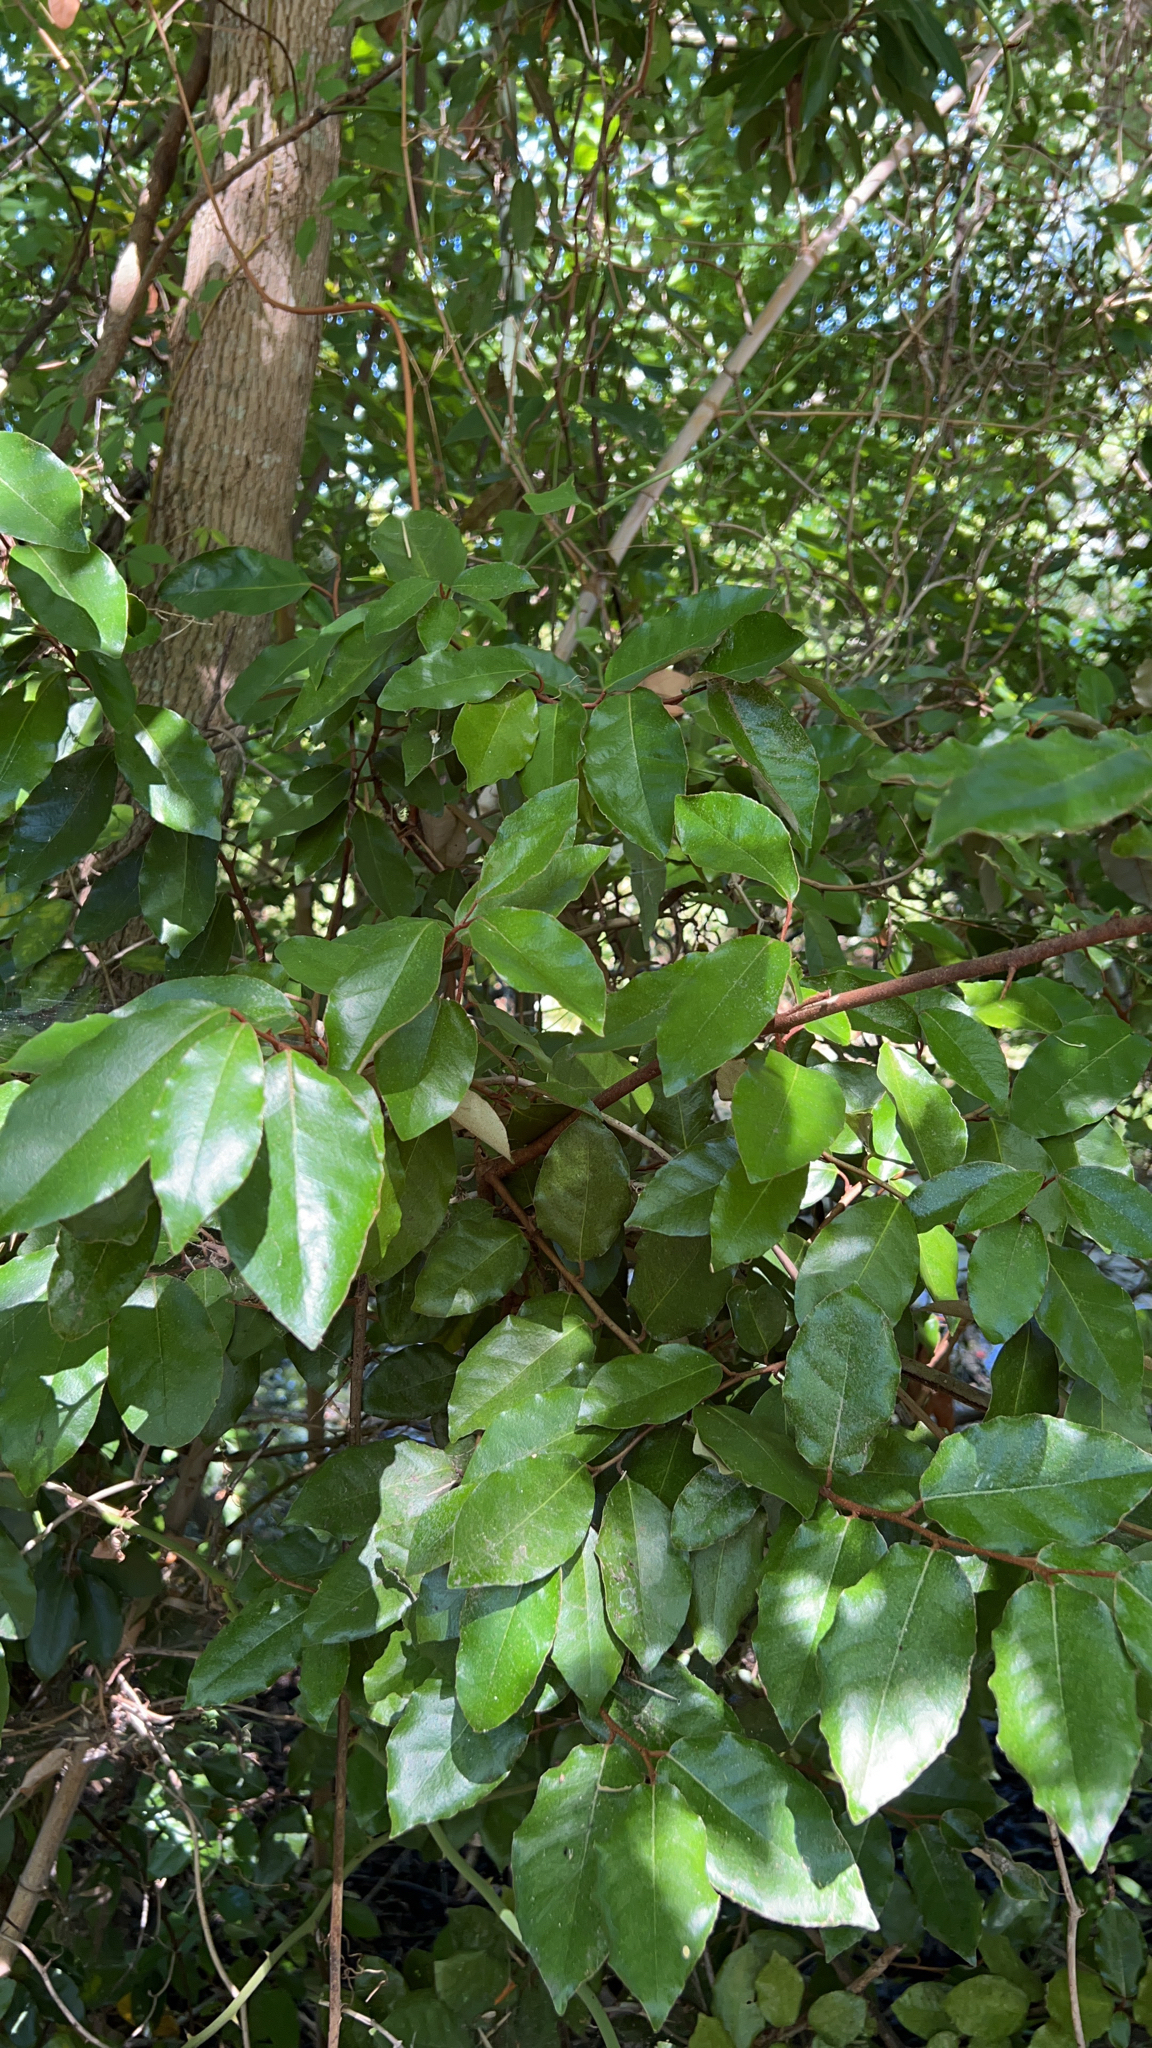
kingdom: Plantae
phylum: Tracheophyta
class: Magnoliopsida
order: Rosales
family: Elaeagnaceae
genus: Elaeagnus
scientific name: Elaeagnus pungens
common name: Spiny oleaster
